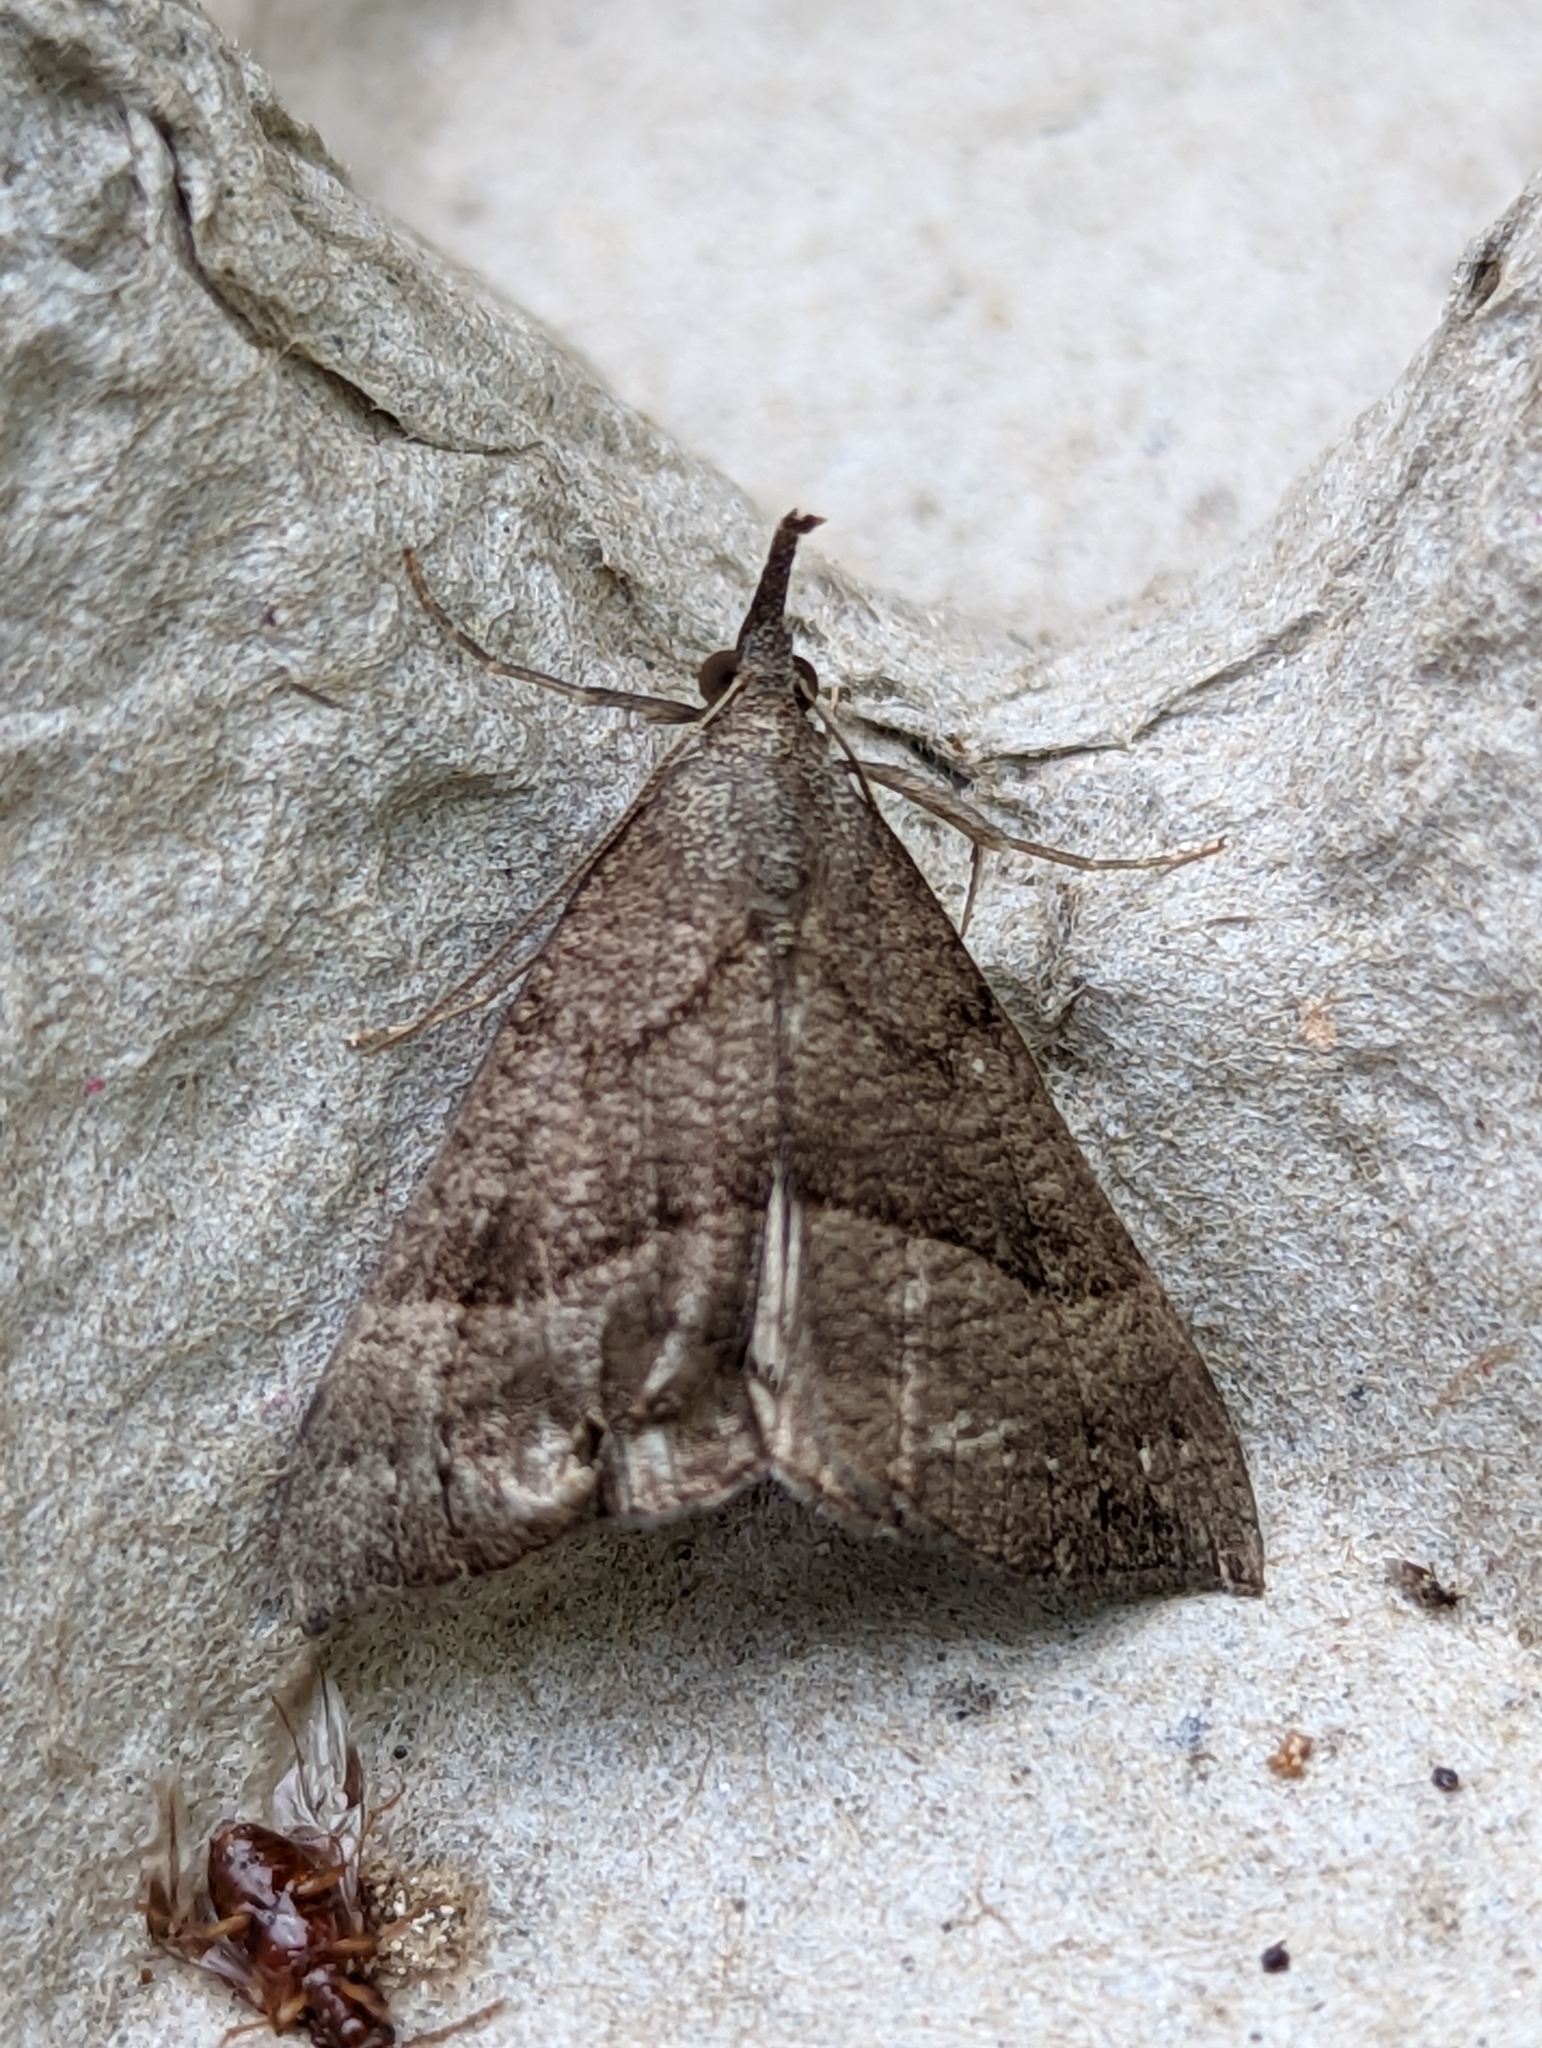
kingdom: Animalia
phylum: Arthropoda
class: Insecta
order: Lepidoptera
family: Erebidae
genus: Hypena
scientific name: Hypena proboscidalis
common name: Snout
